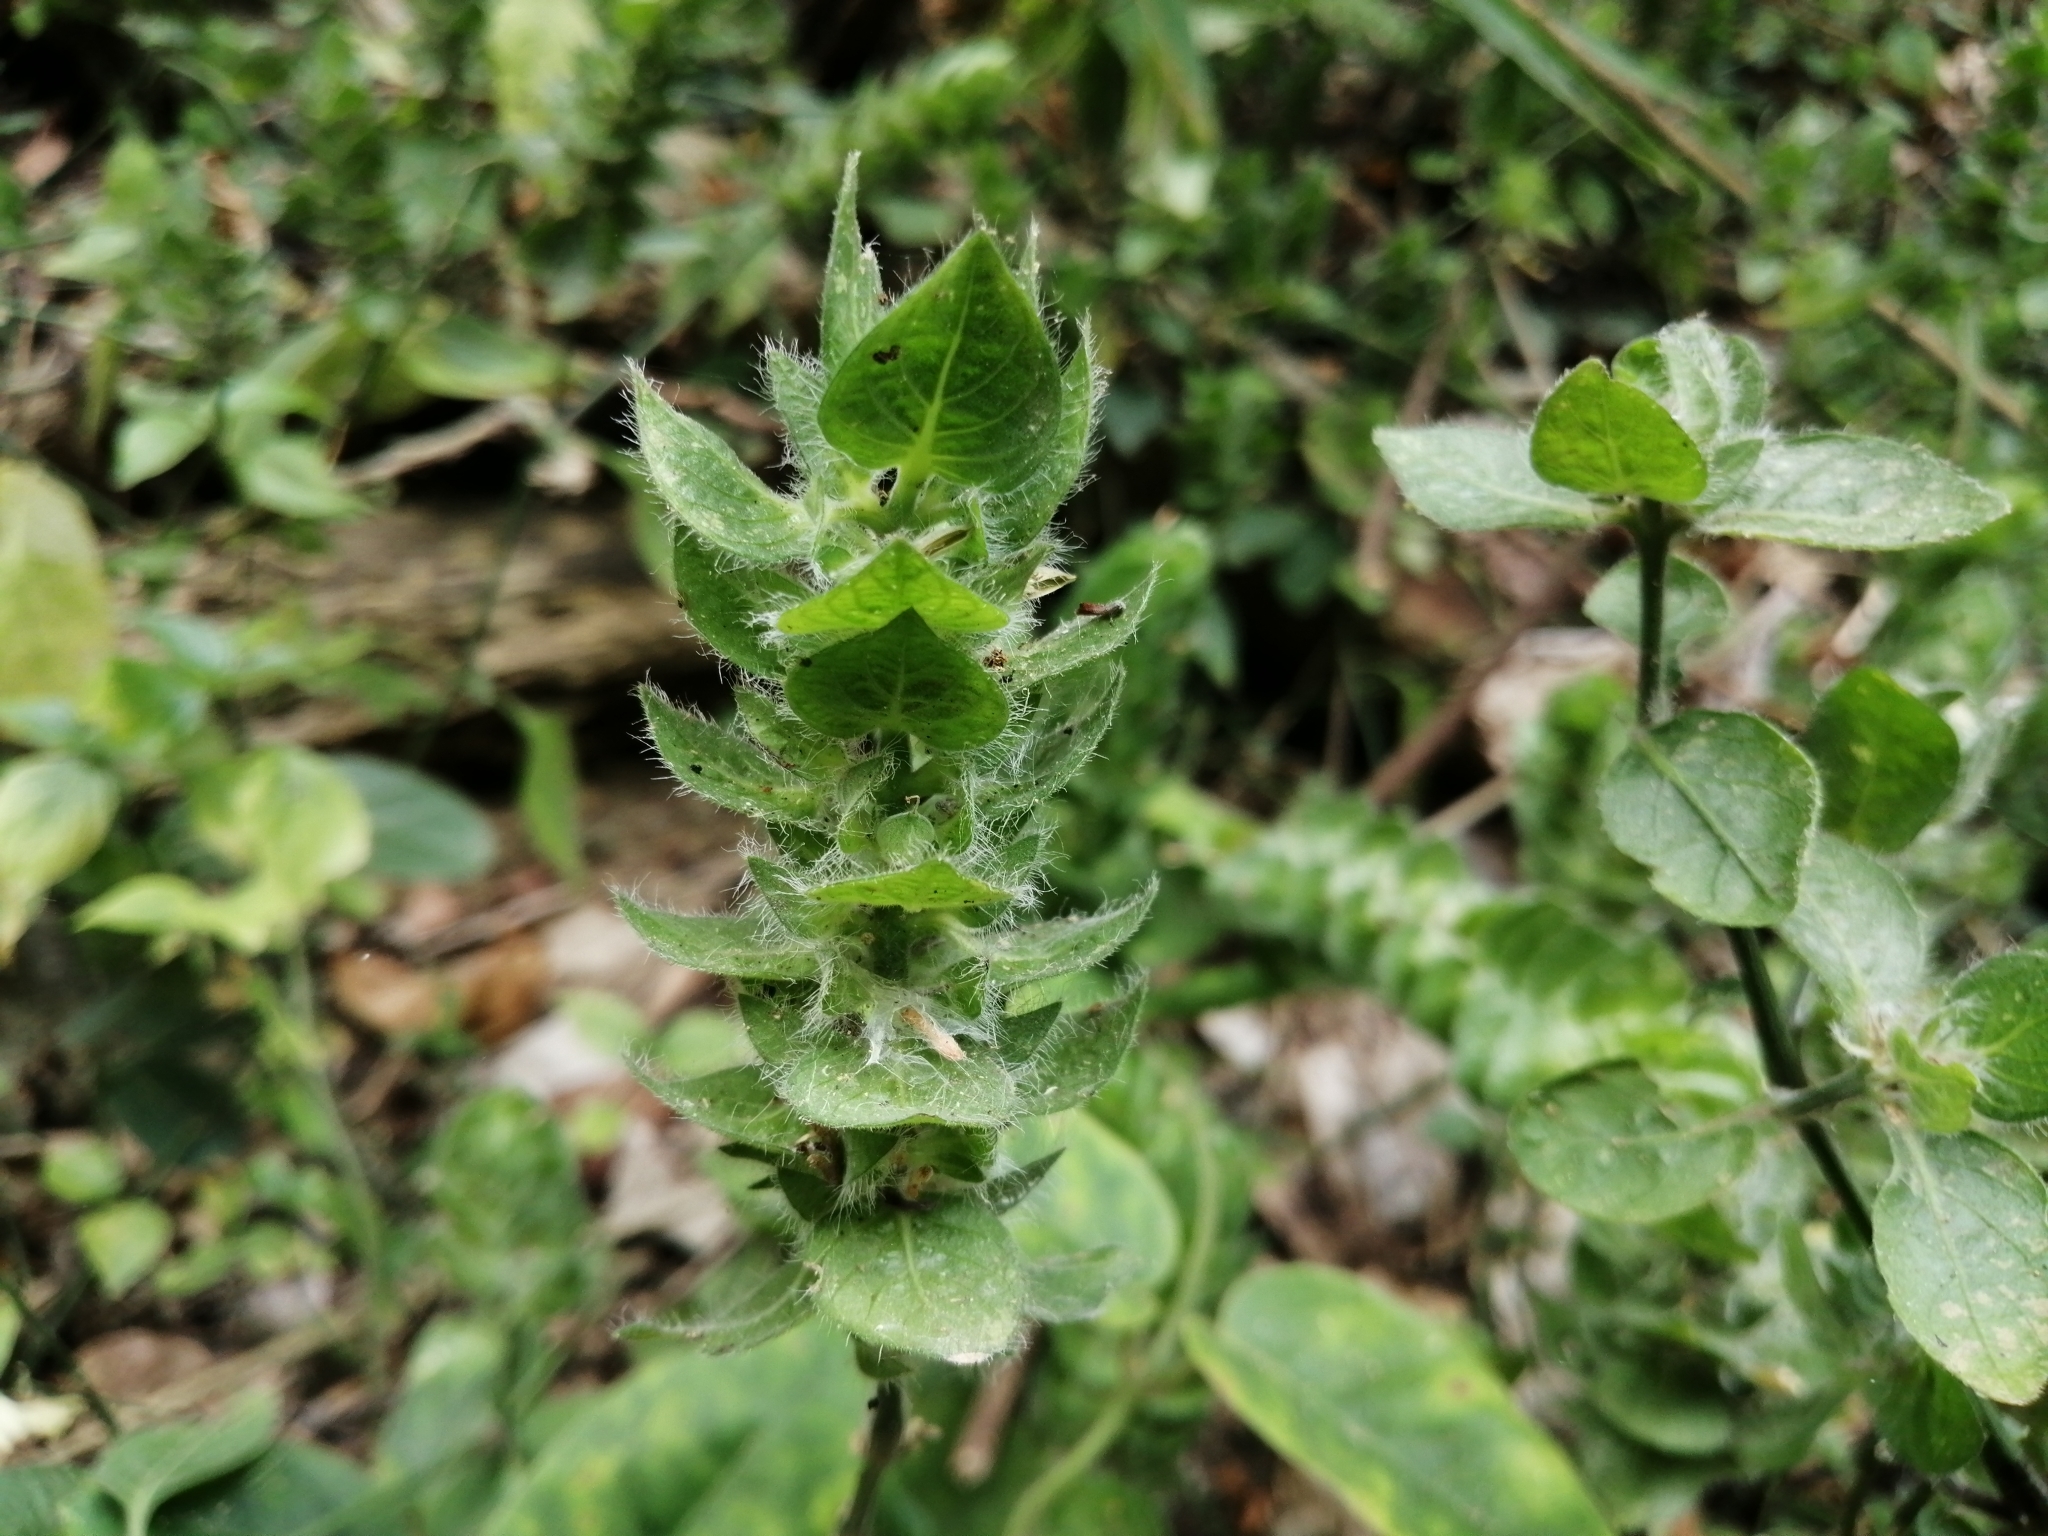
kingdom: Plantae
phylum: Tracheophyta
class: Magnoliopsida
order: Lamiales
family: Acanthaceae
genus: Ruellia
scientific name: Ruellia blechum
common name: Browne's blechum
